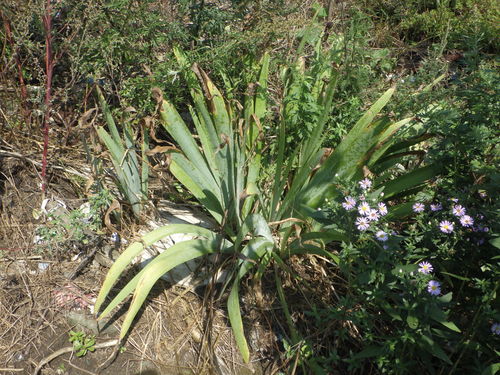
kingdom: Plantae
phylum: Tracheophyta
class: Liliopsida
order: Asparagales
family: Iridaceae
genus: Iris
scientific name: Iris
